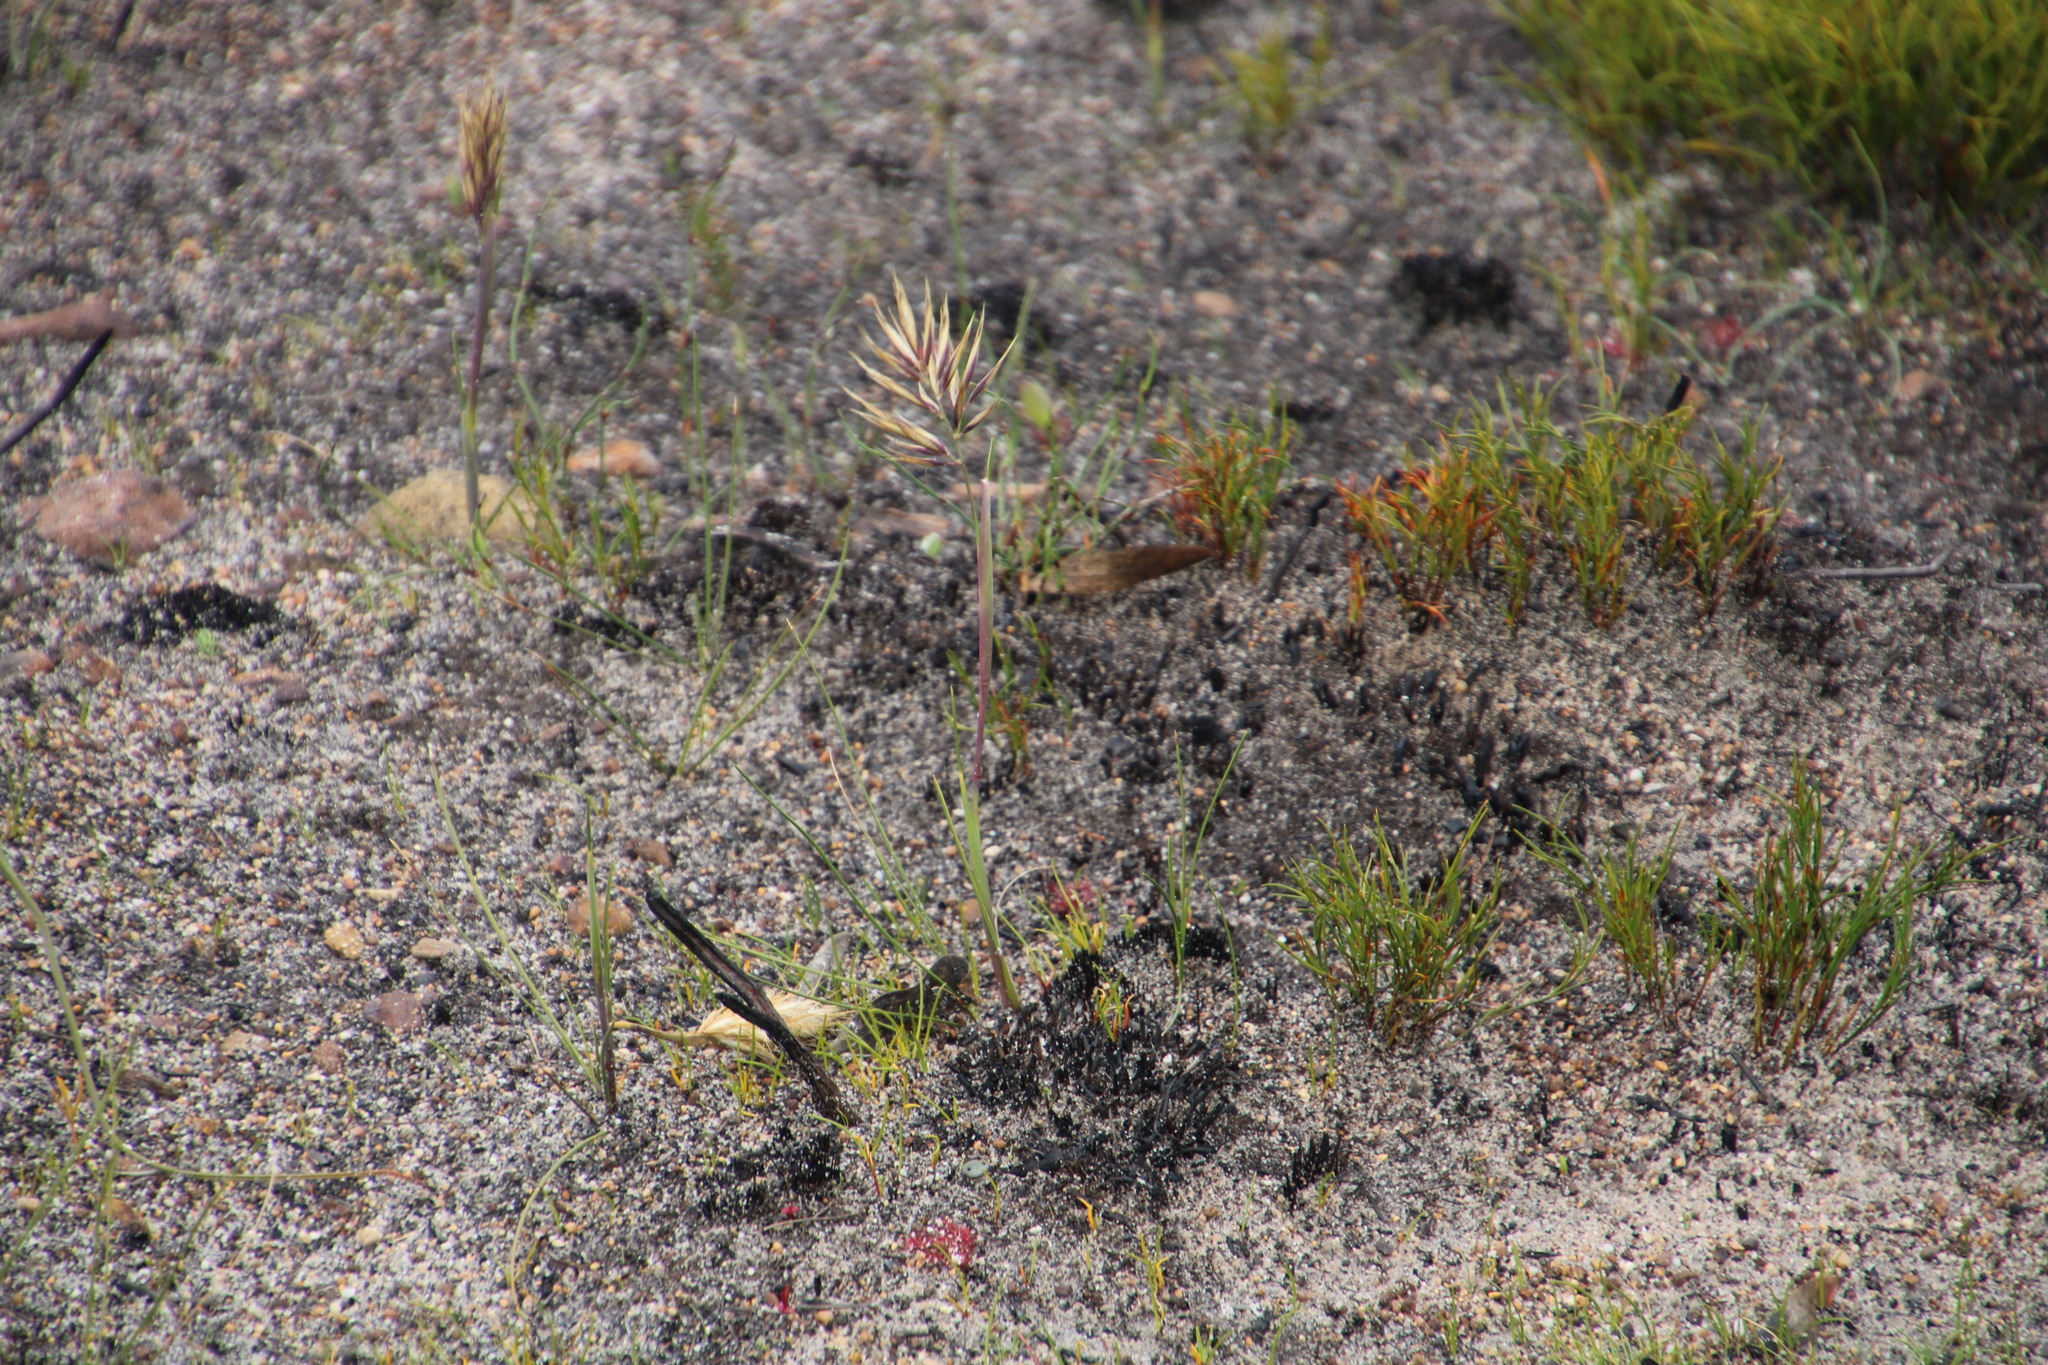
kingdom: Plantae
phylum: Tracheophyta
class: Liliopsida
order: Poales
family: Poaceae
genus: Geochloa
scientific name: Geochloa rufa
